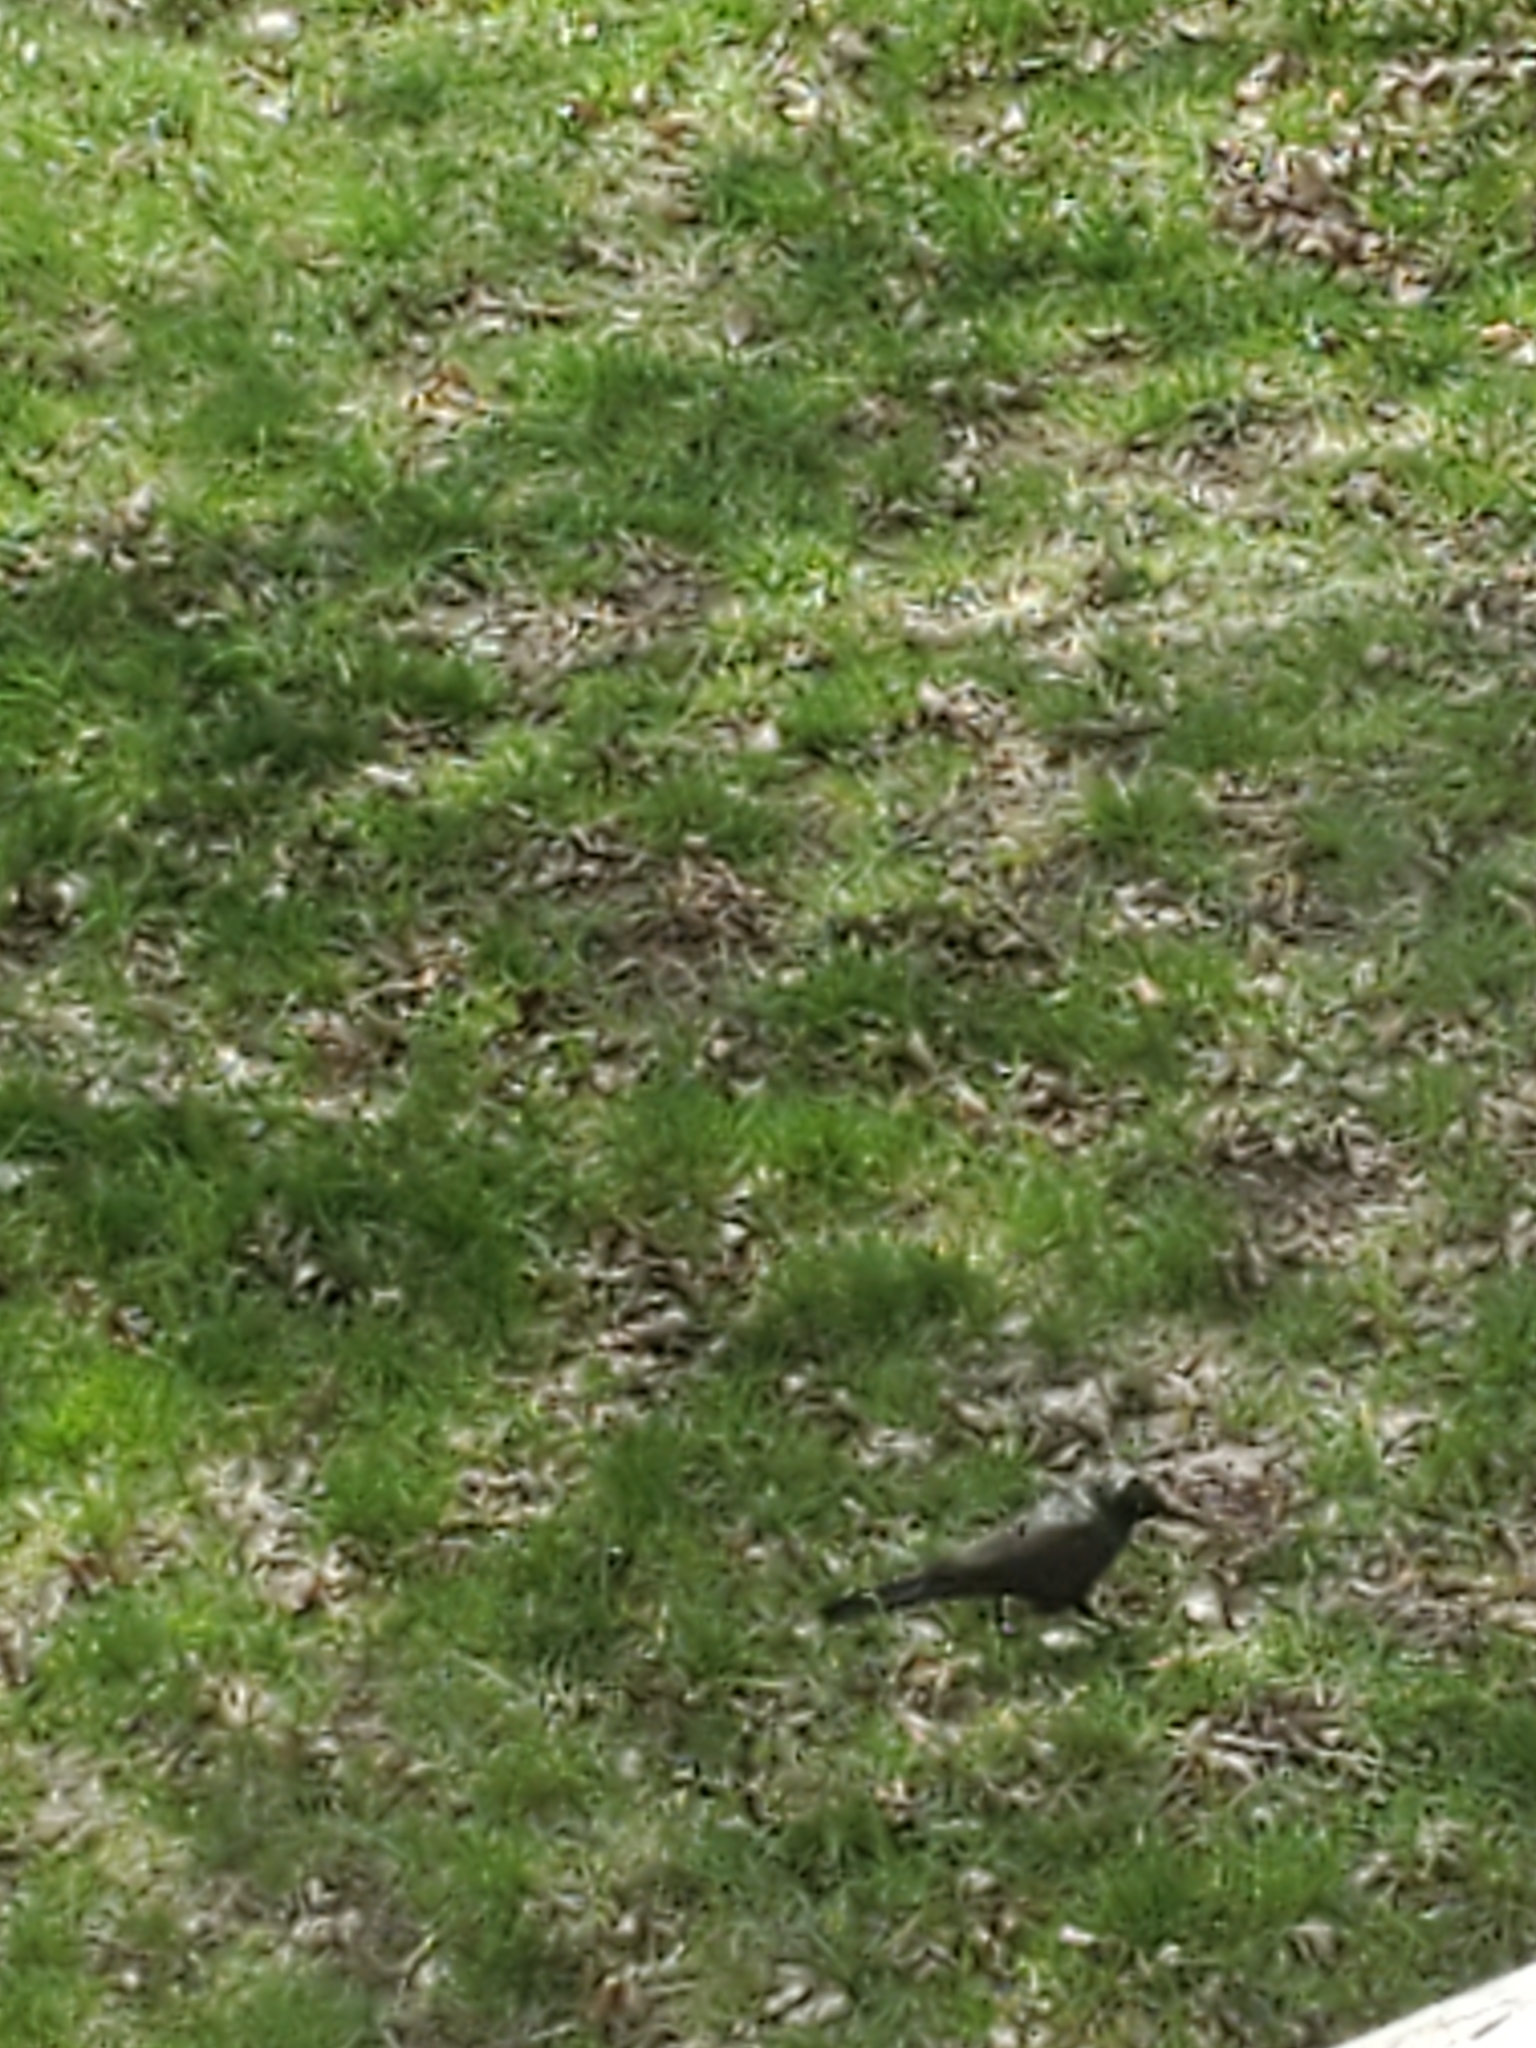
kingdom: Animalia
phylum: Chordata
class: Aves
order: Passeriformes
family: Icteridae
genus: Quiscalus
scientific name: Quiscalus quiscula
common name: Common grackle
